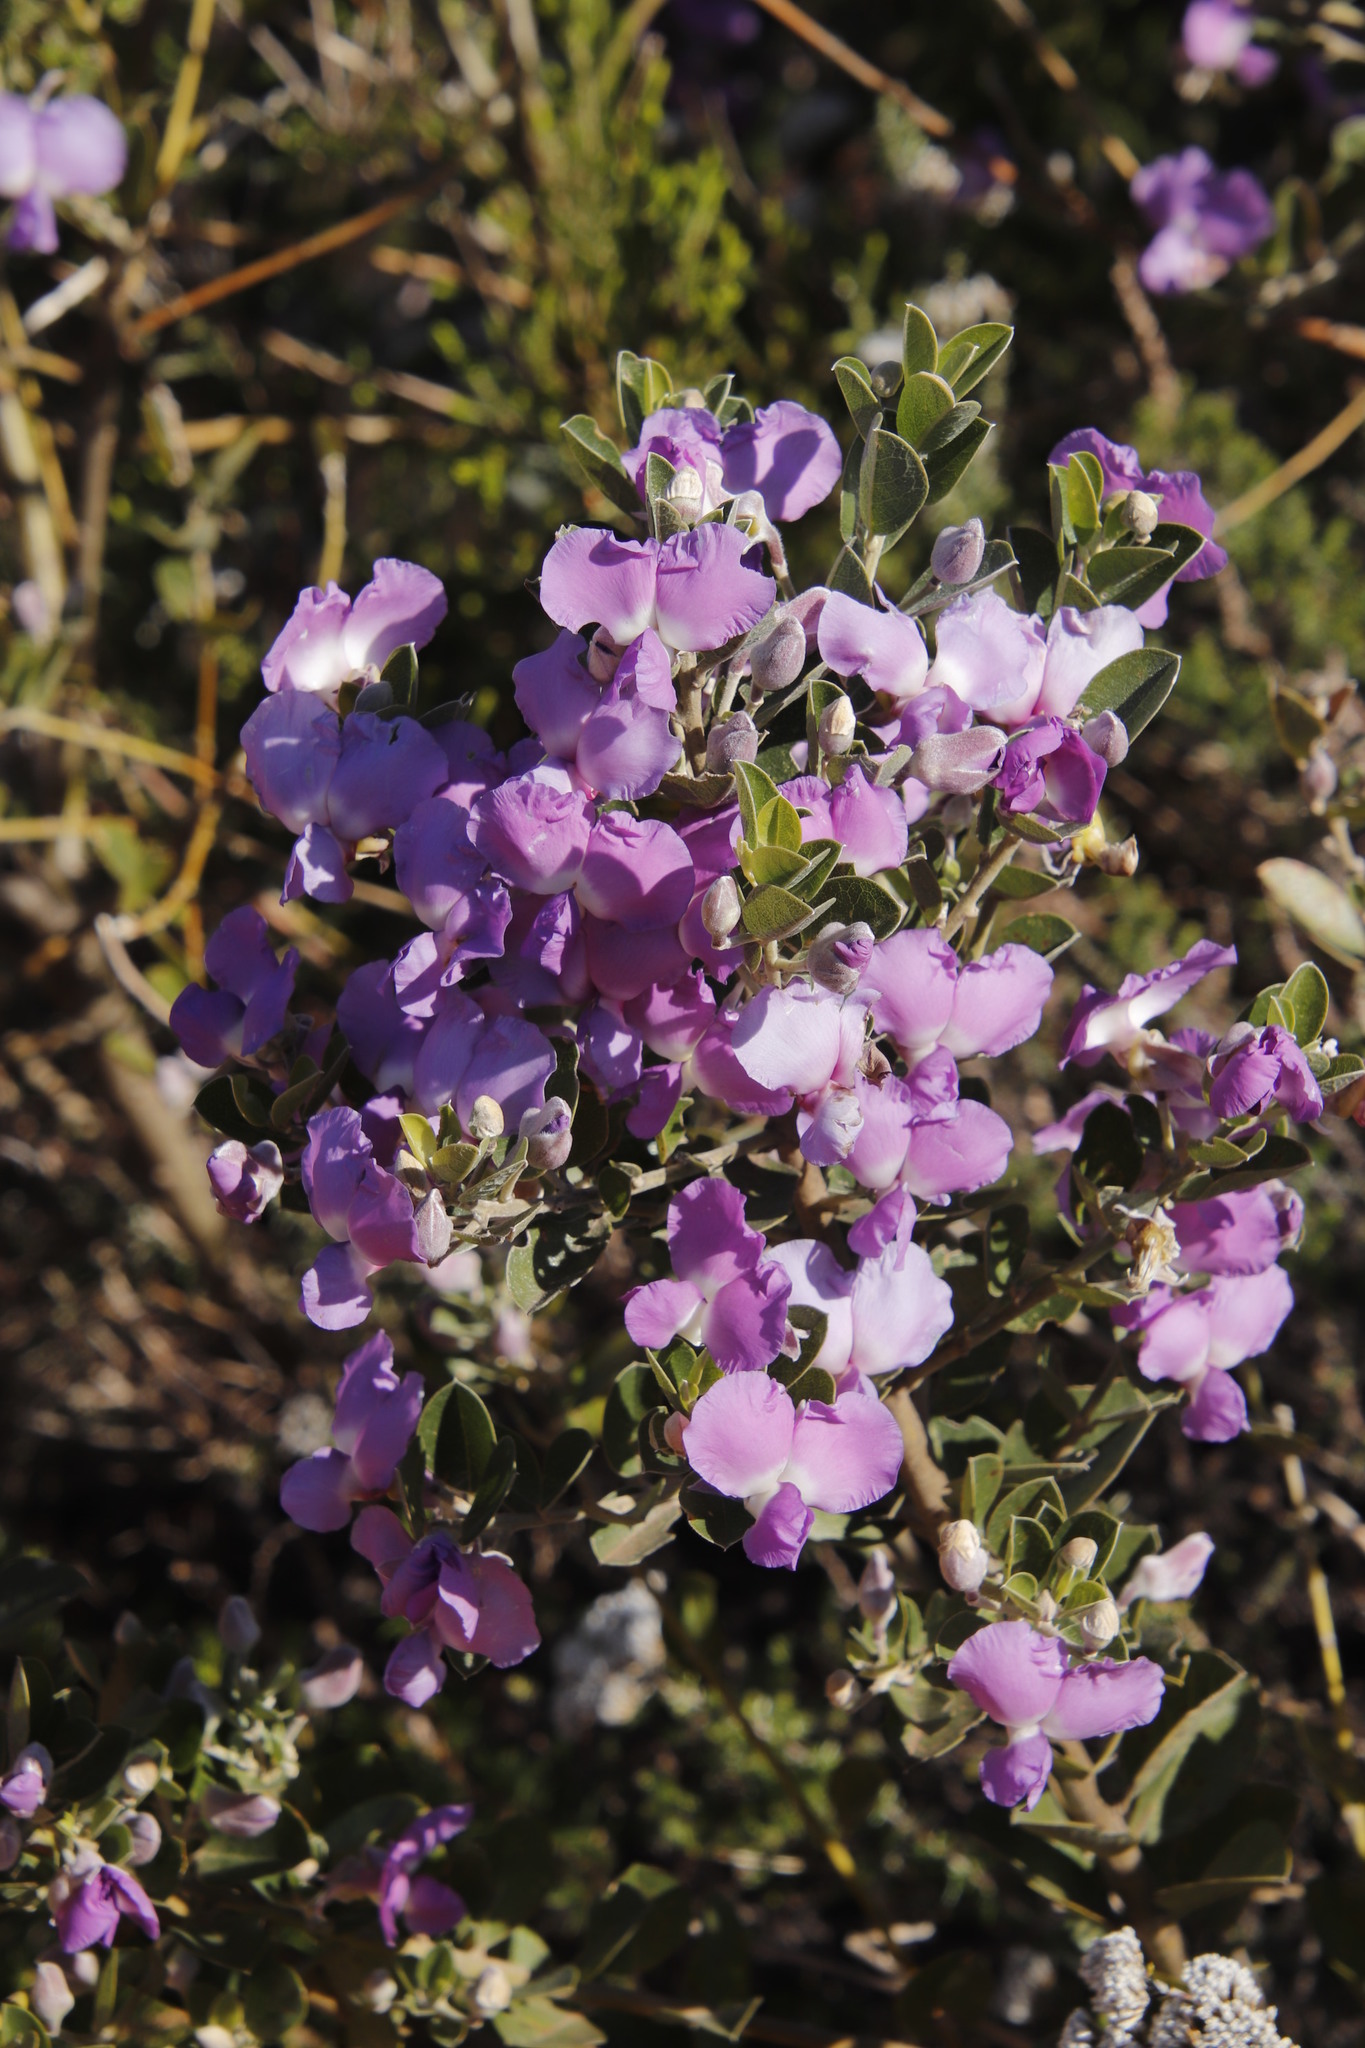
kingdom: Plantae
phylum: Tracheophyta
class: Magnoliopsida
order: Fabales
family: Fabaceae
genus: Podalyria
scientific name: Podalyria calyptrata
